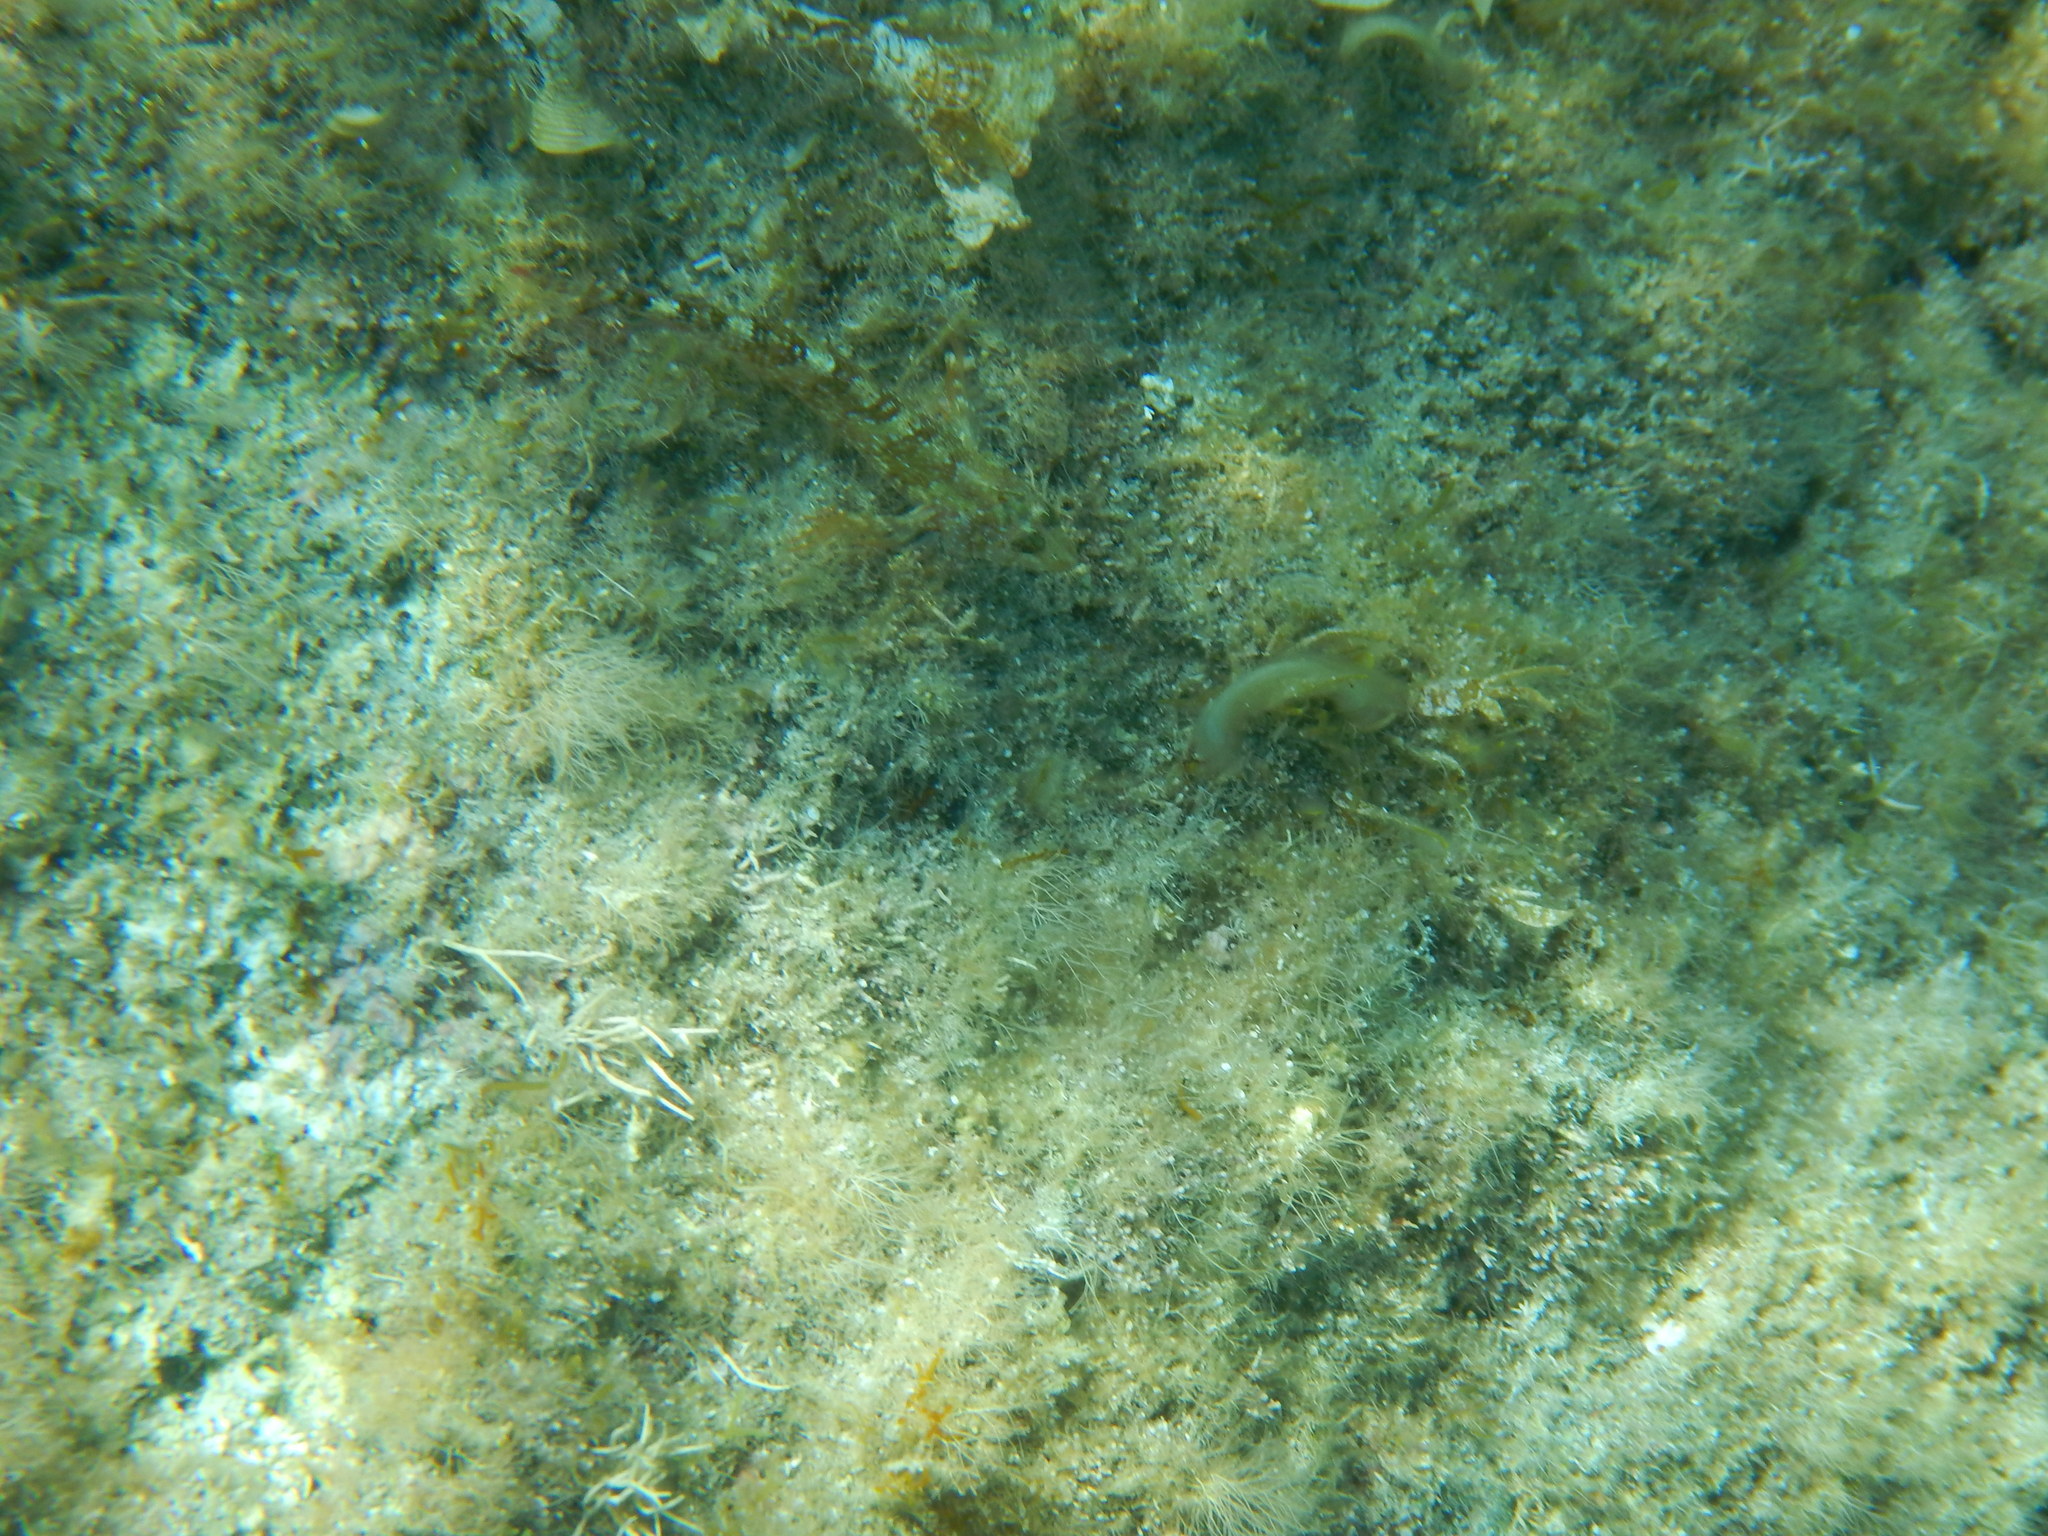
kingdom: Animalia
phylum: Chordata
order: Perciformes
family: Tripterygiidae
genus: Tripterygion
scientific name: Tripterygion tripteronotum
